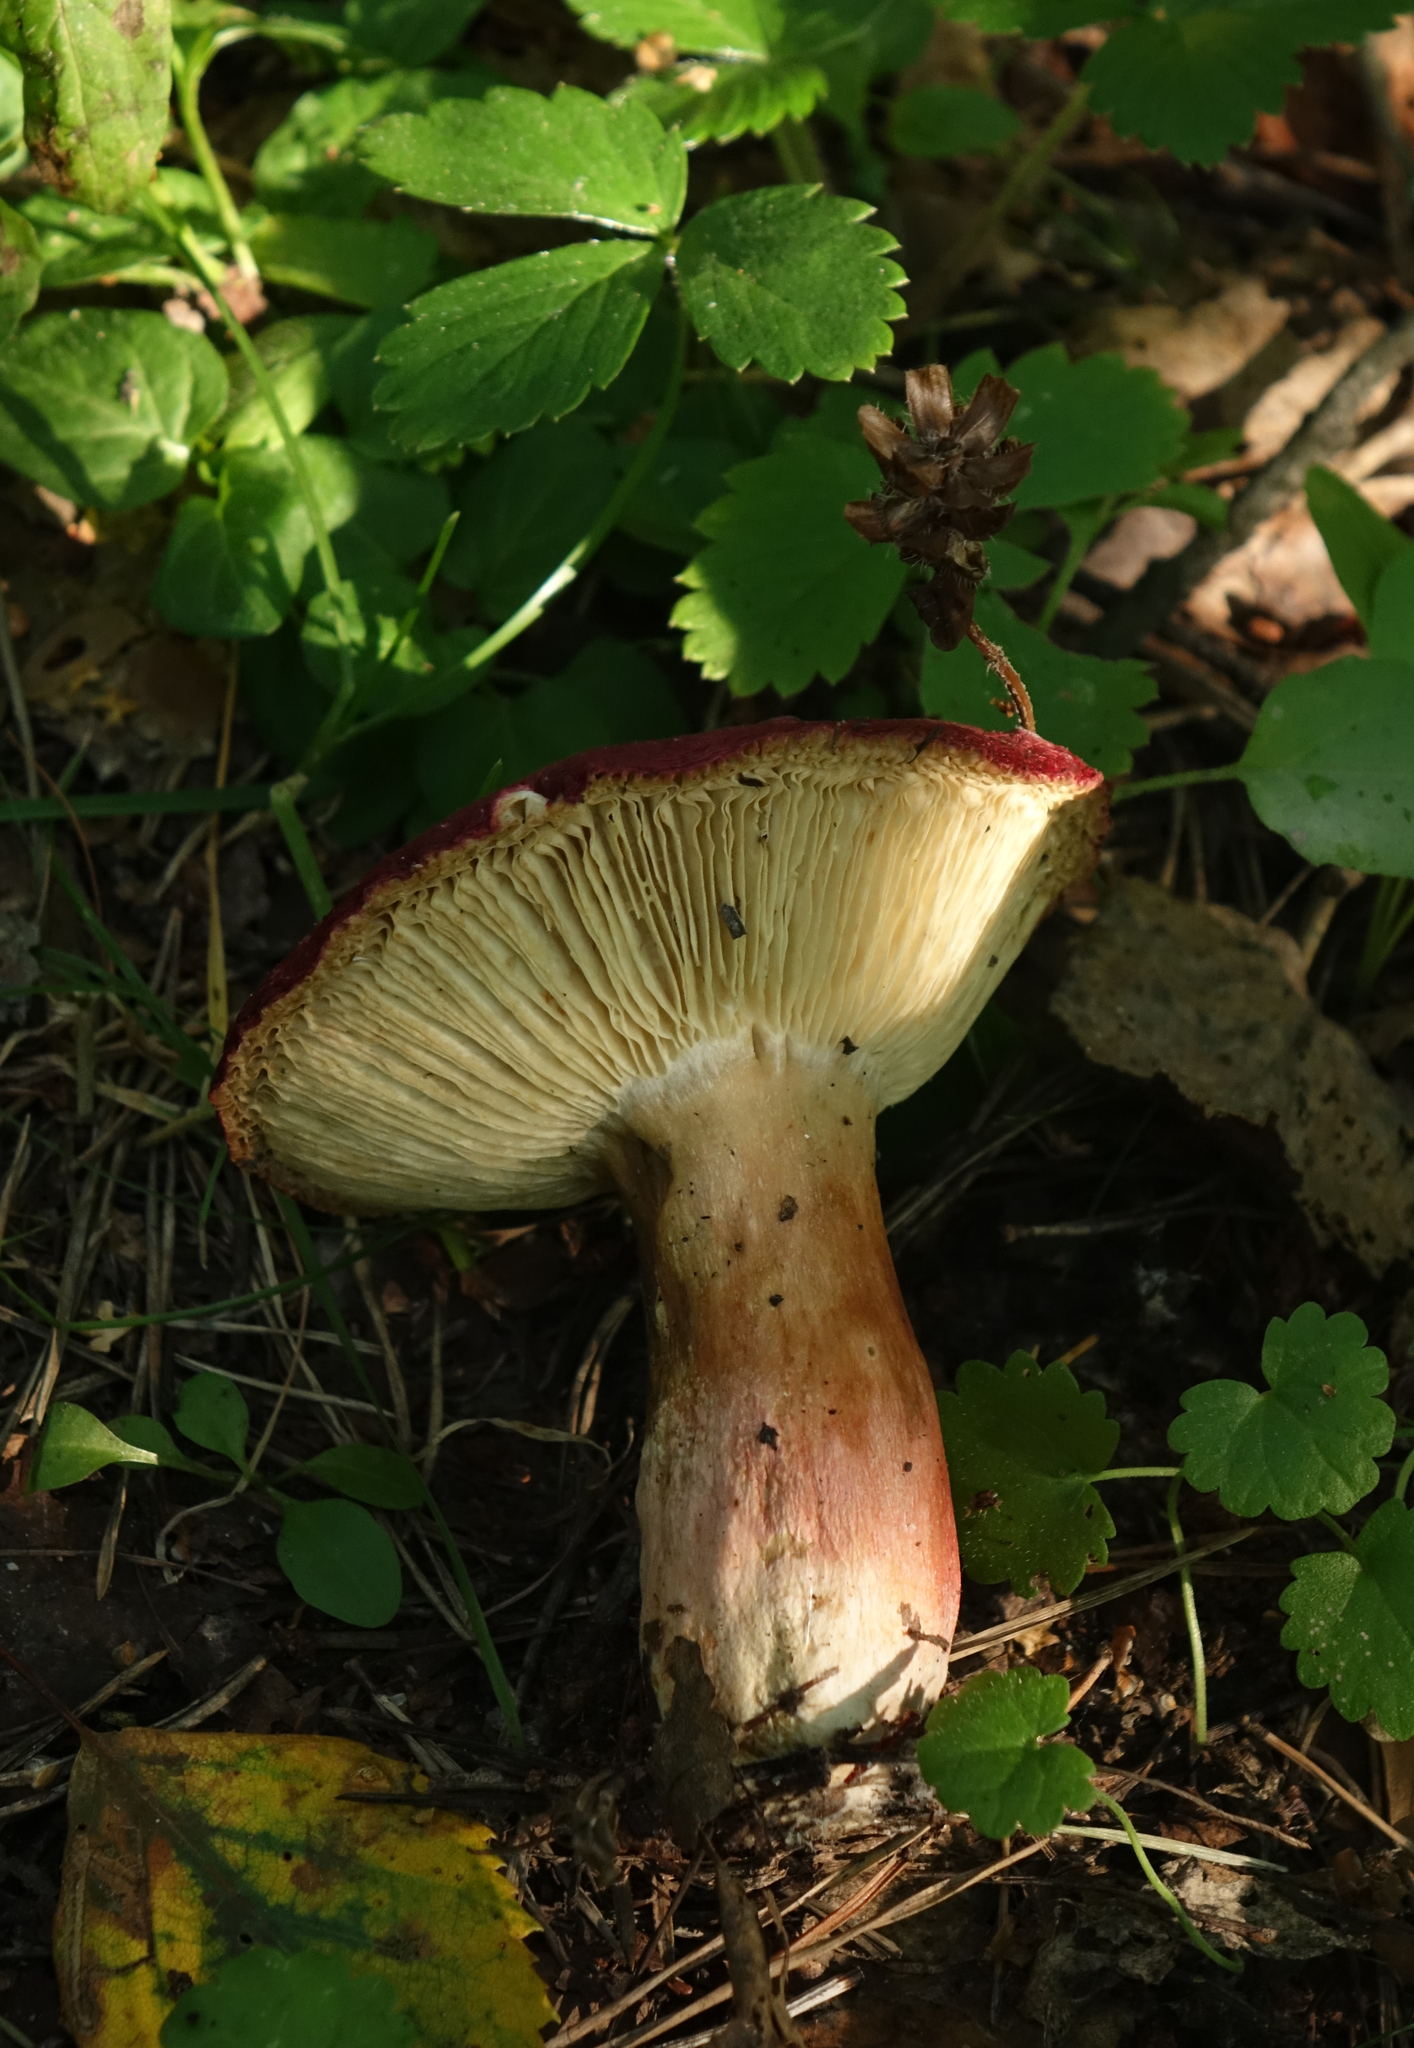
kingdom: Fungi
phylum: Basidiomycota
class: Agaricomycetes
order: Russulales
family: Russulaceae
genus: Russula
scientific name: Russula
